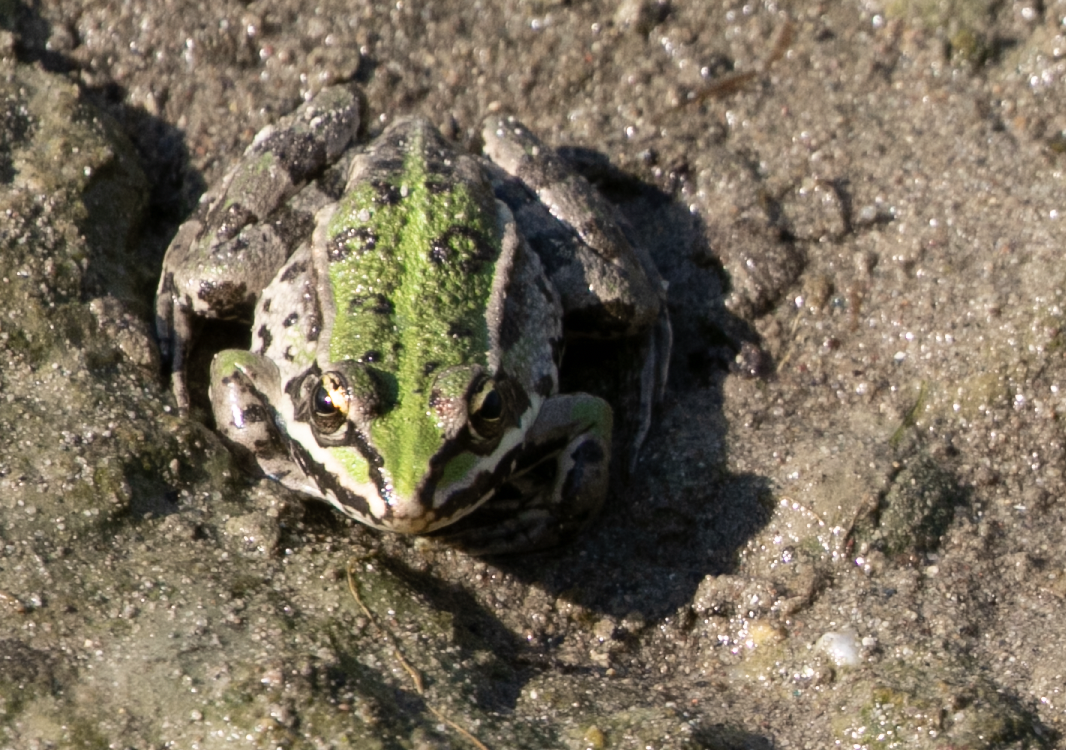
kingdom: Animalia
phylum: Chordata
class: Amphibia
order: Anura
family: Ranidae
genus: Pelophylax
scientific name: Pelophylax
